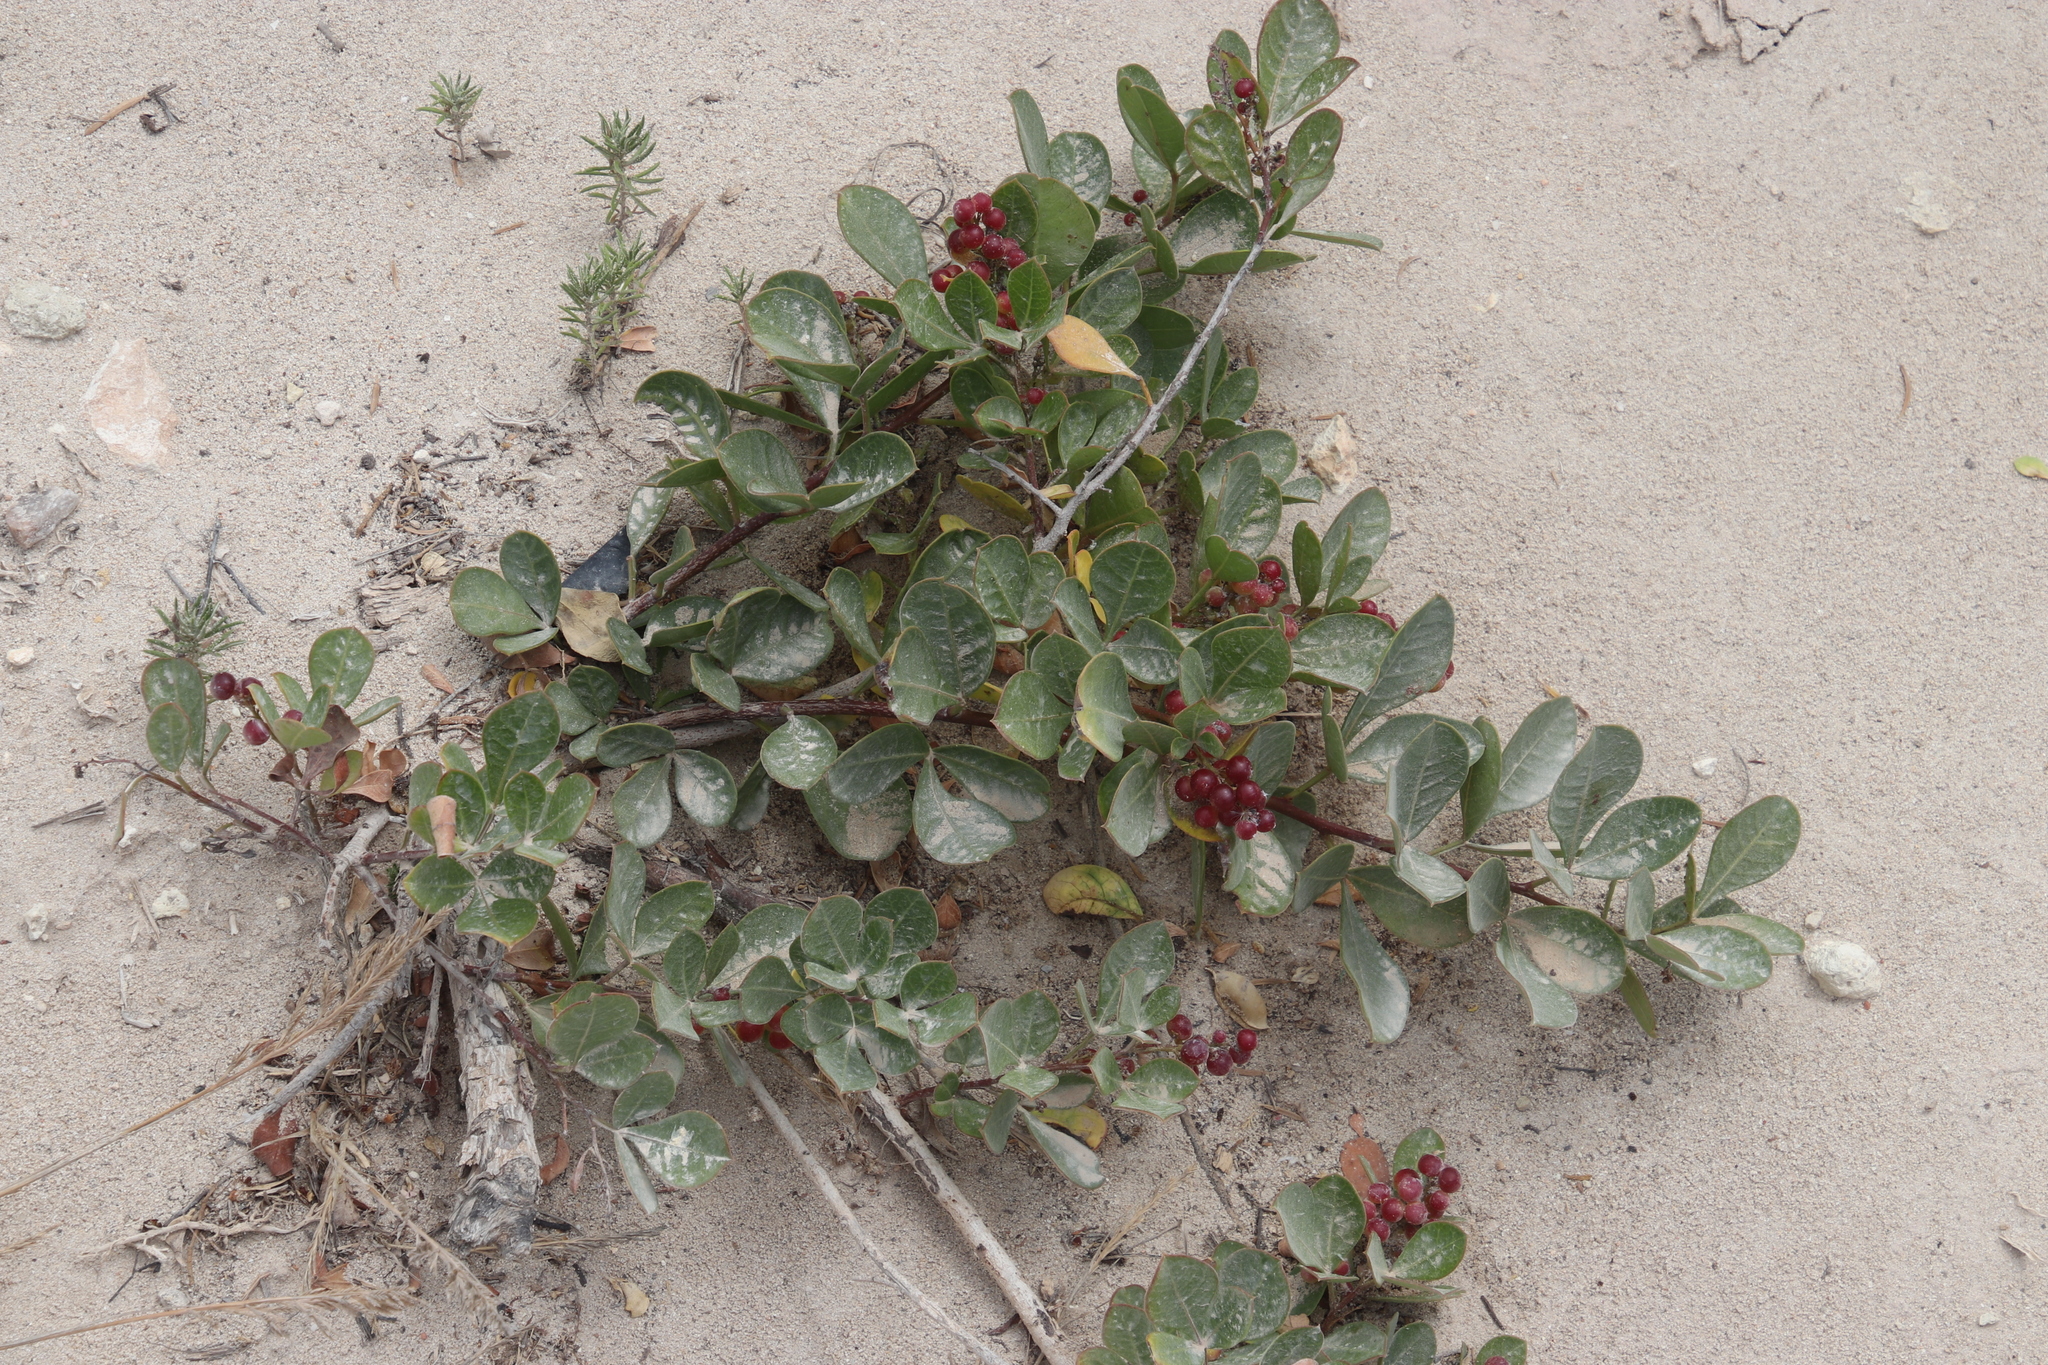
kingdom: Plantae
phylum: Tracheophyta
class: Magnoliopsida
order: Sapindales
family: Anacardiaceae
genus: Searsia
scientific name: Searsia laevigata
